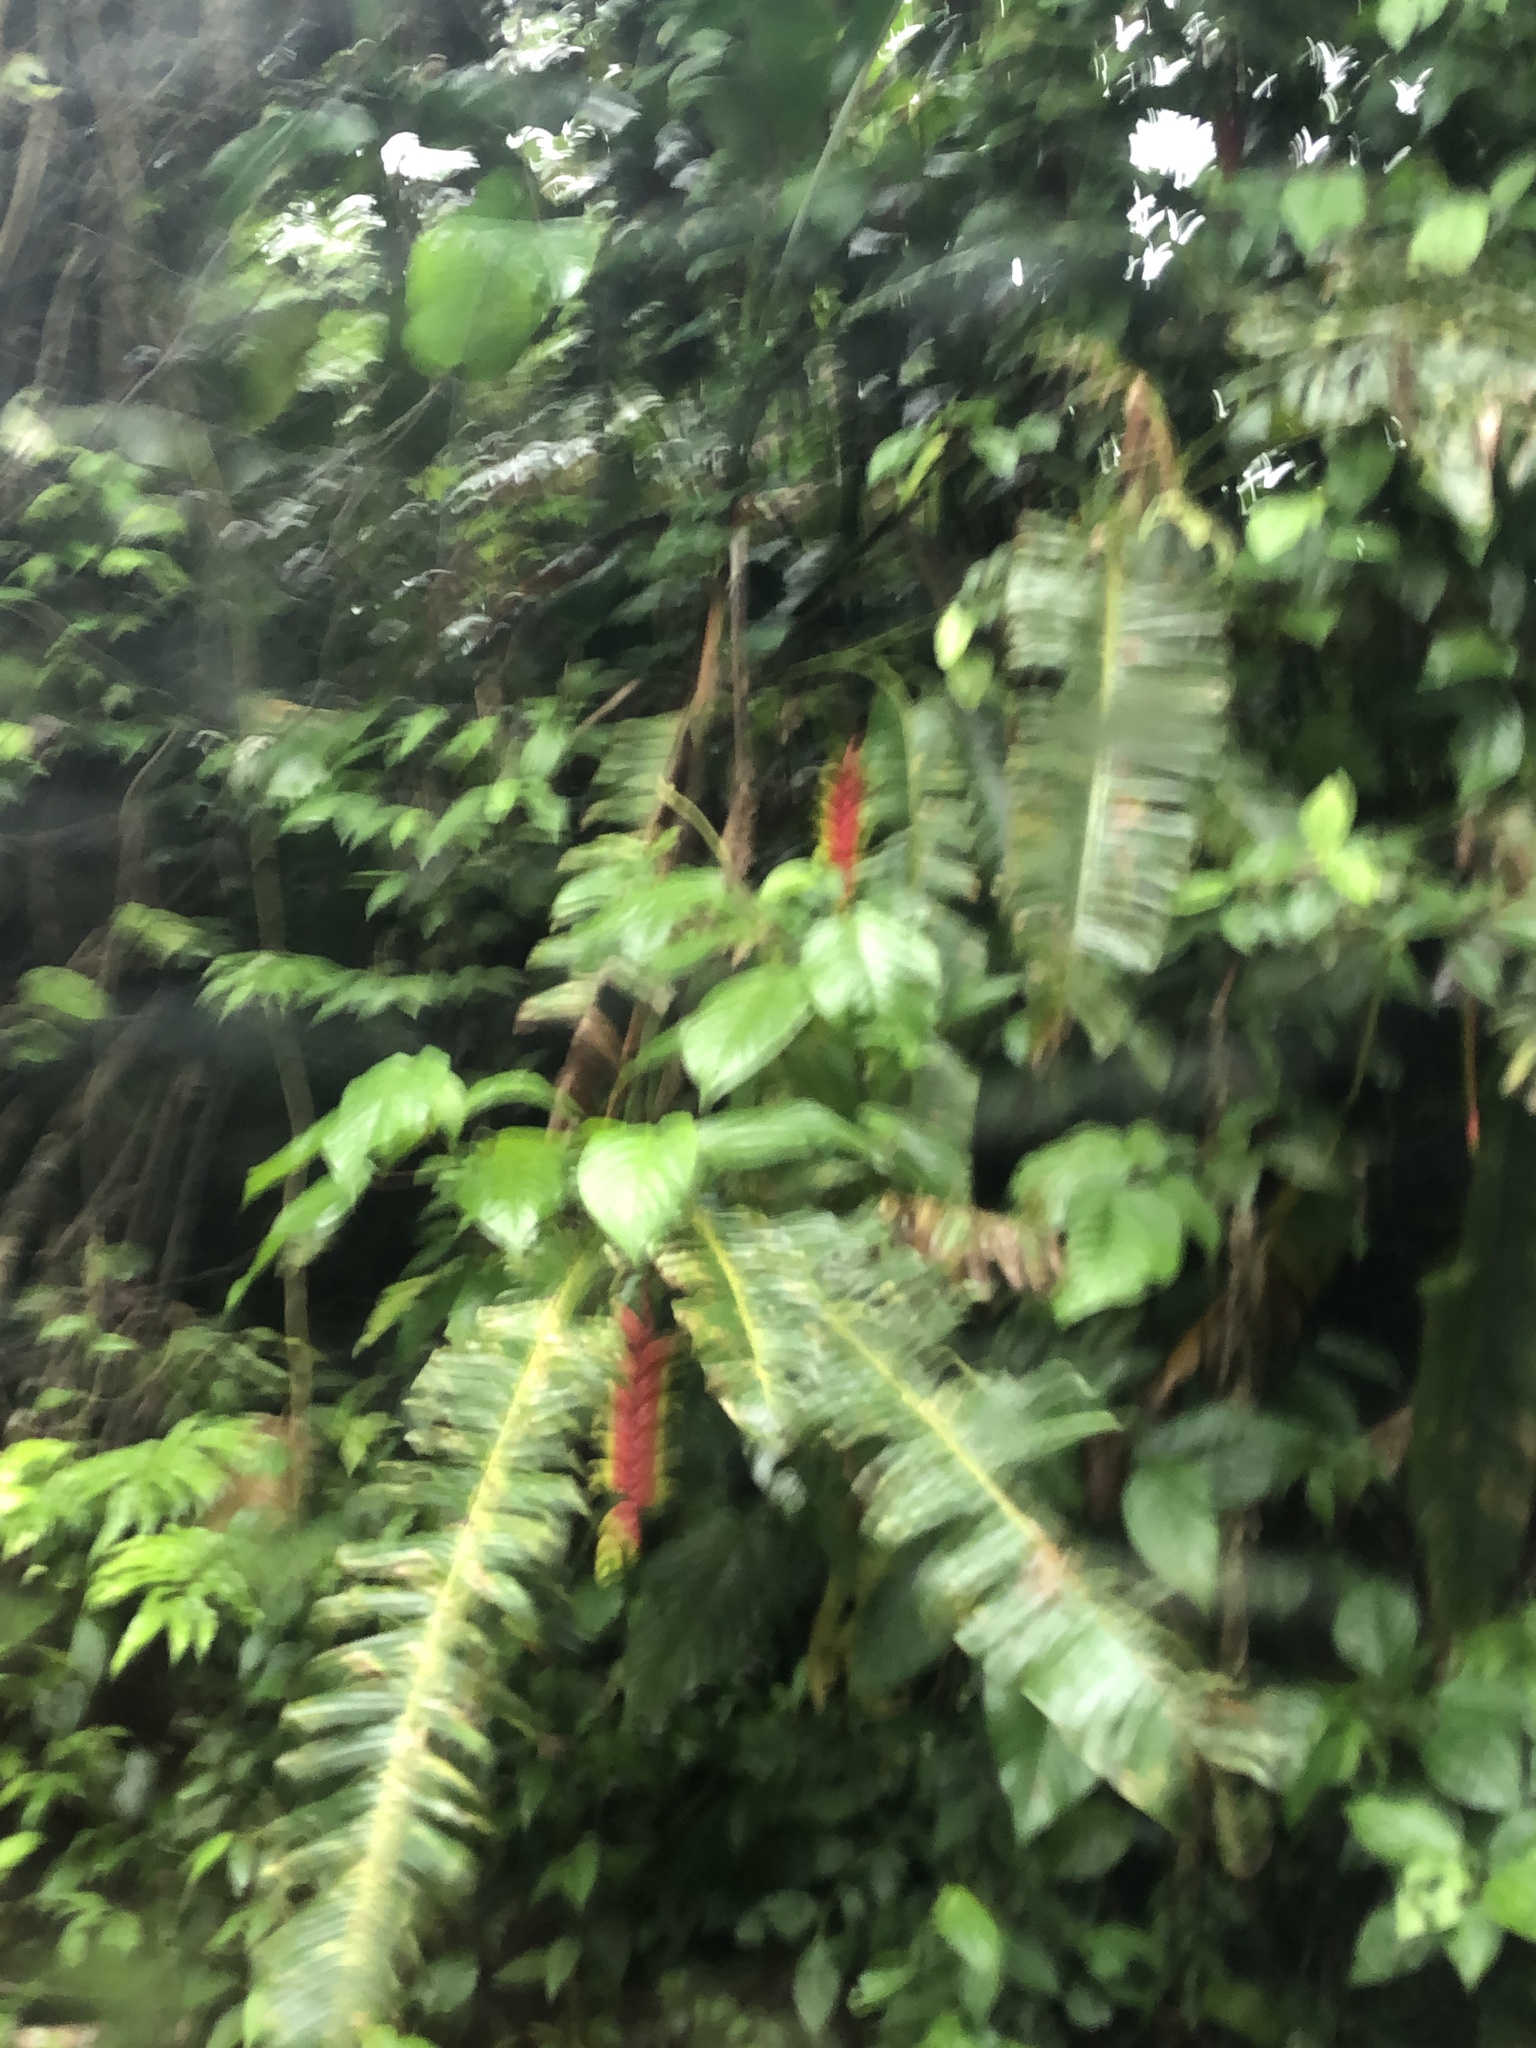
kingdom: Plantae
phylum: Tracheophyta
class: Liliopsida
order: Zingiberales
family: Heliconiaceae
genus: Heliconia
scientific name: Heliconia rostrata
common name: False bird of paradise
